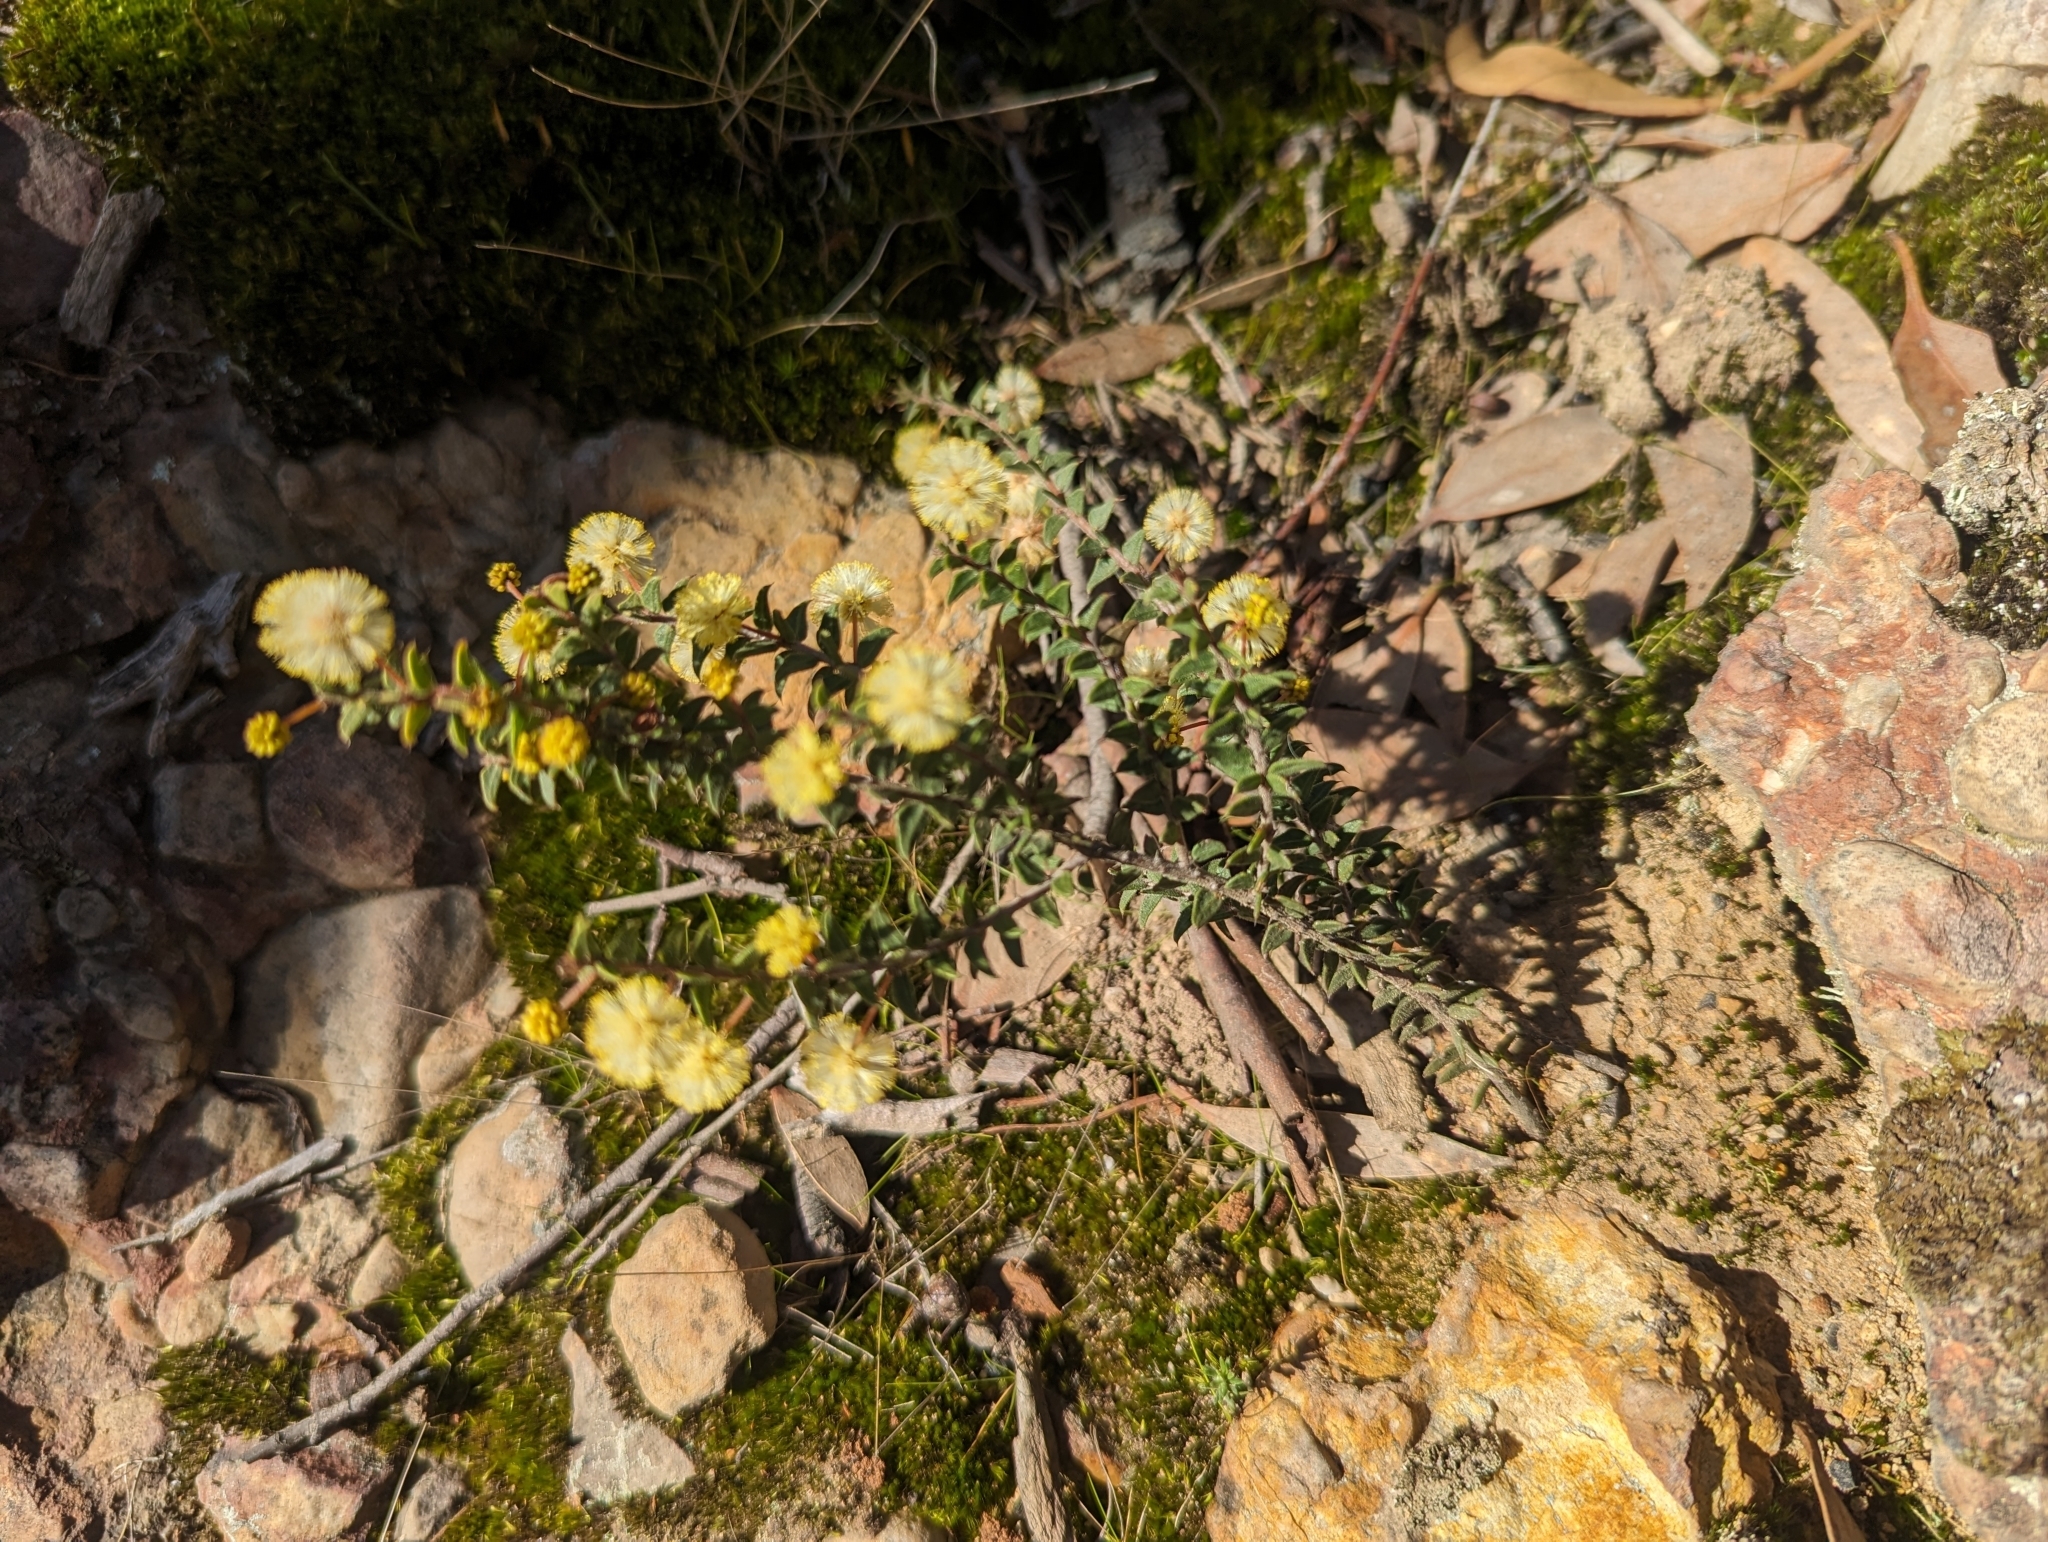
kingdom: Plantae
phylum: Tracheophyta
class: Magnoliopsida
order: Fabales
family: Fabaceae
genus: Acacia
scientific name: Acacia gunnii
